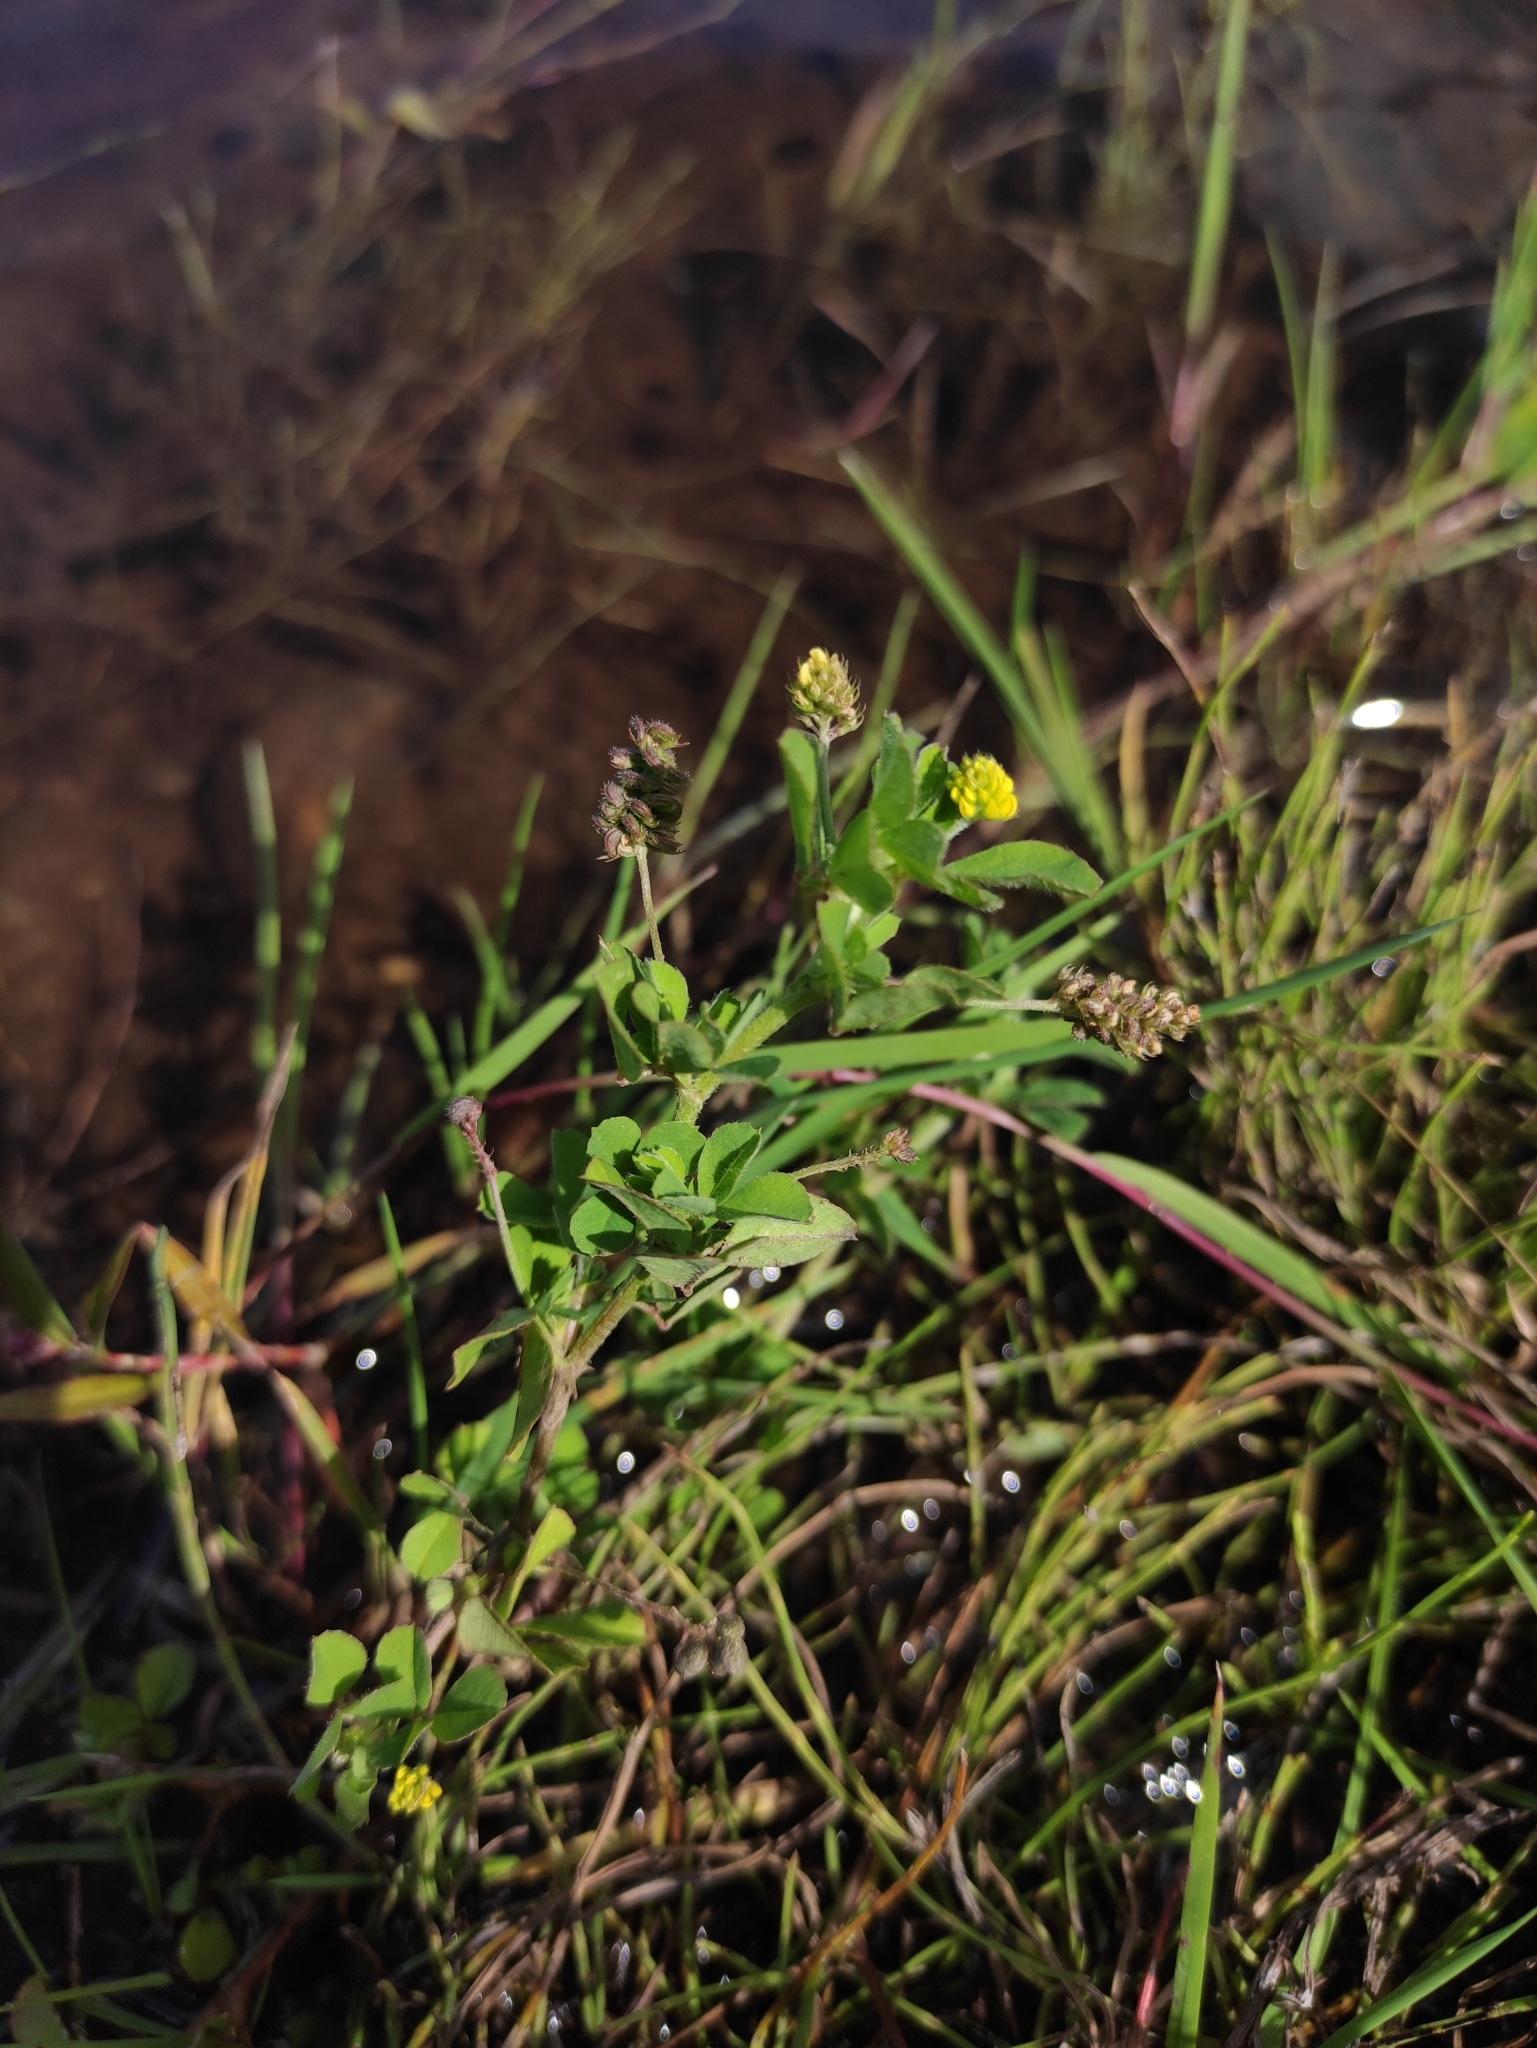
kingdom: Plantae
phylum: Tracheophyta
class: Magnoliopsida
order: Fabales
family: Fabaceae
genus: Medicago
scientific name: Medicago lupulina
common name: Black medick
